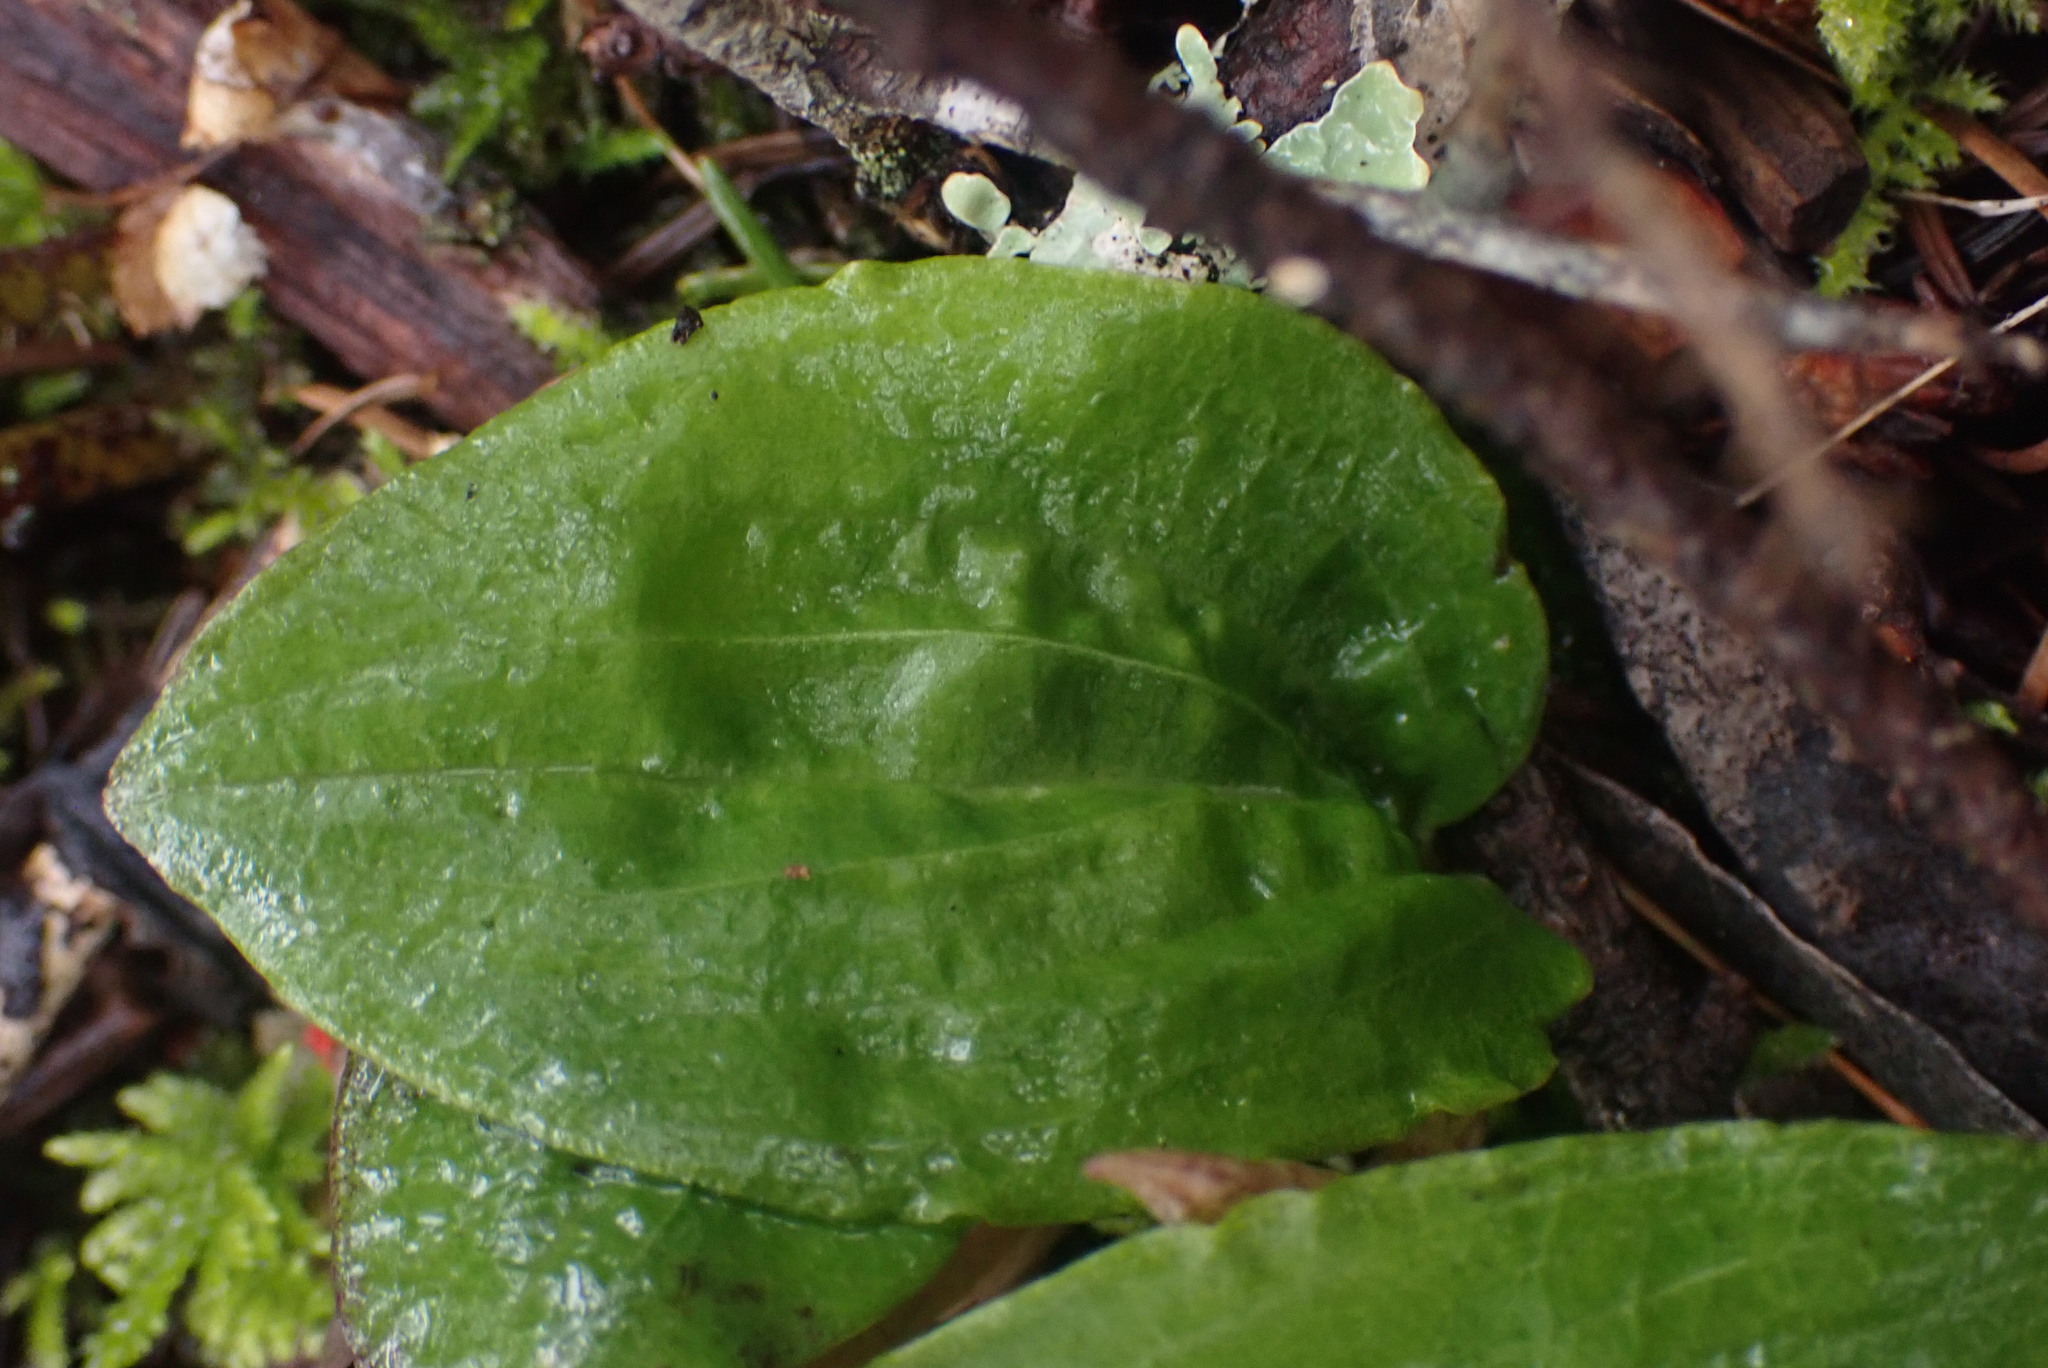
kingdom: Plantae
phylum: Tracheophyta
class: Liliopsida
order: Asparagales
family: Orchidaceae
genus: Calypso
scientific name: Calypso bulbosa
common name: Calypso
